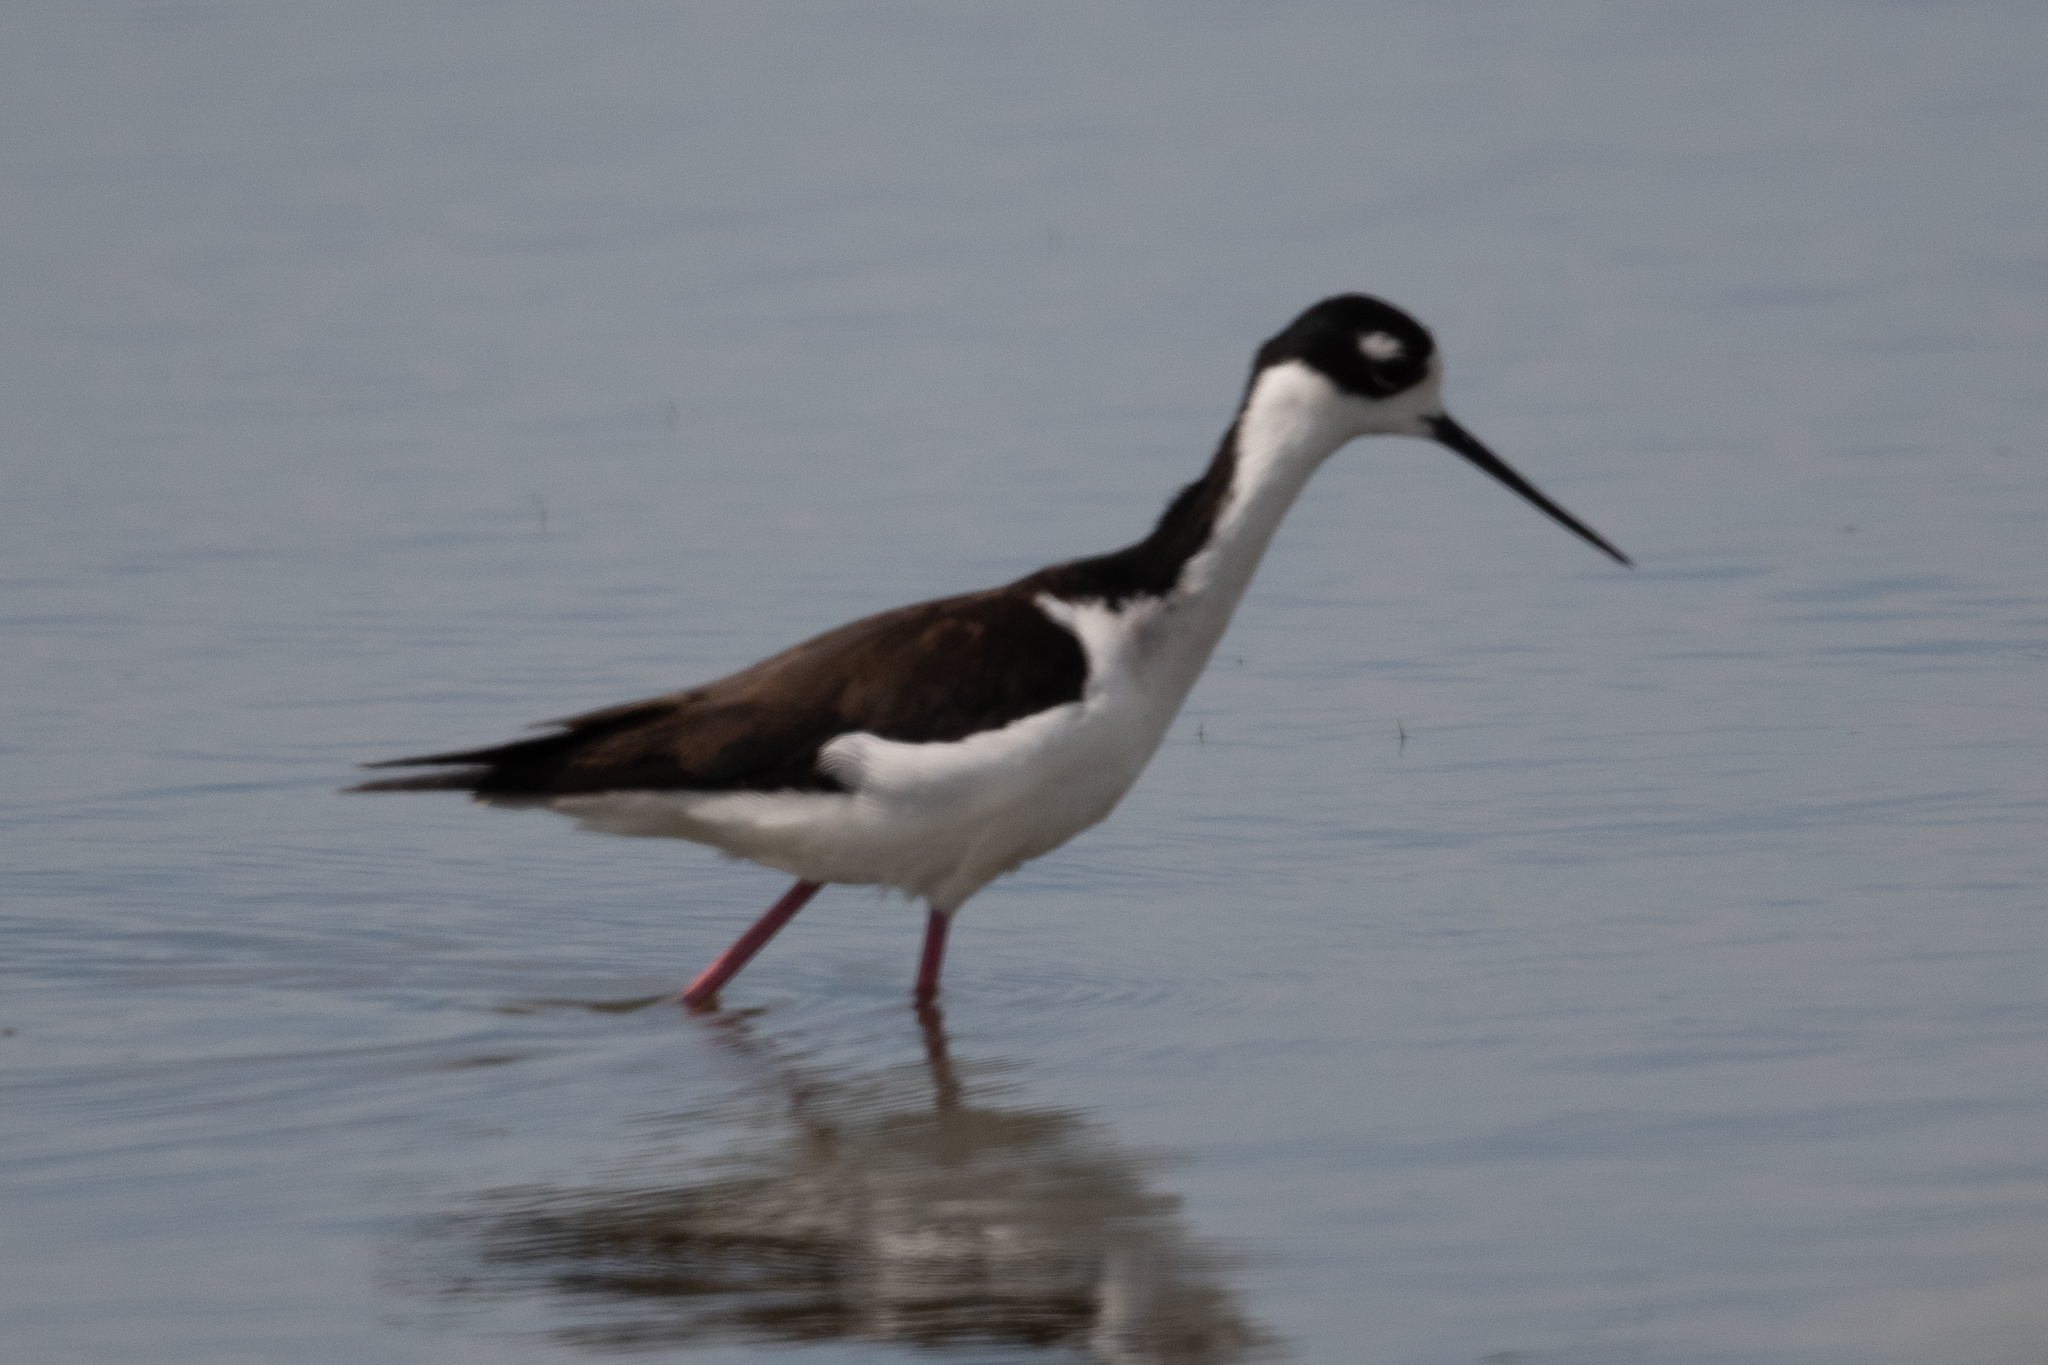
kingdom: Animalia
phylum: Chordata
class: Aves
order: Charadriiformes
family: Recurvirostridae
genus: Himantopus
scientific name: Himantopus mexicanus
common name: Black-necked stilt
